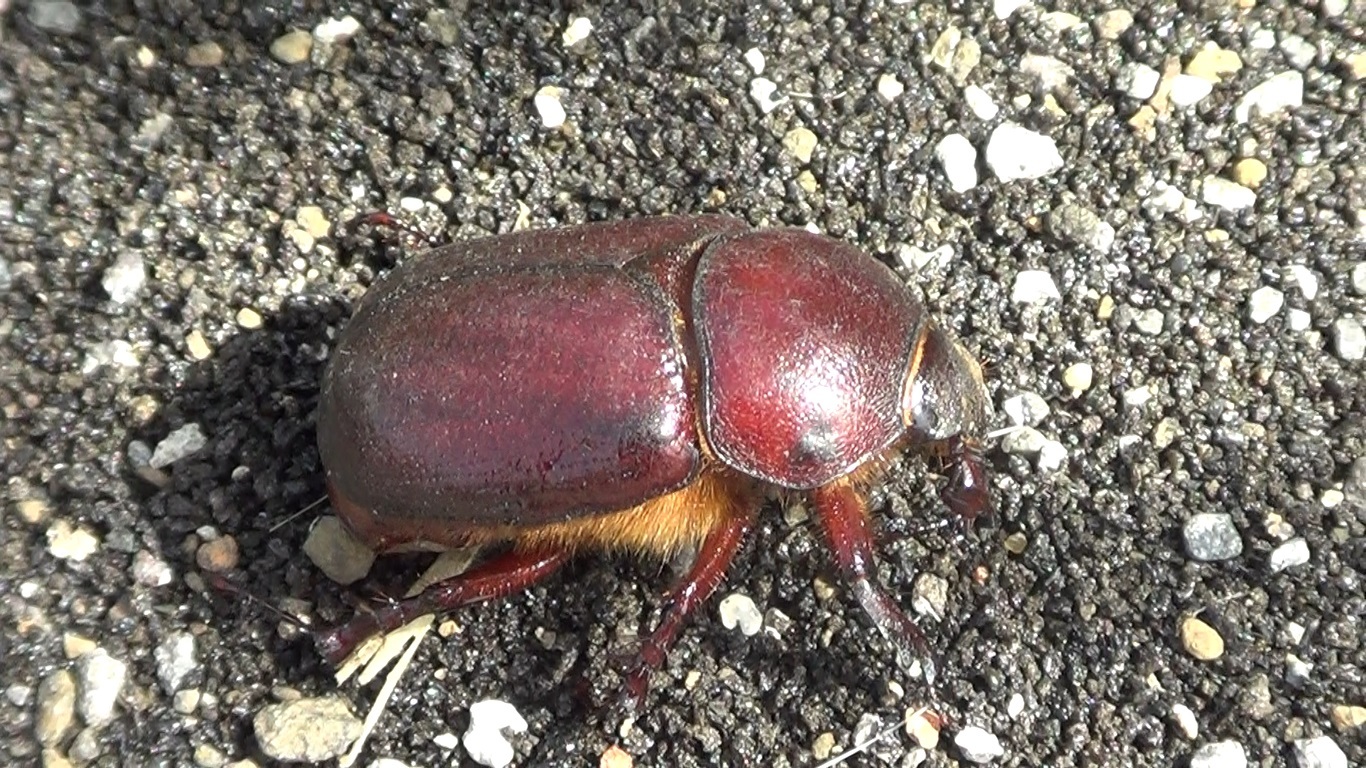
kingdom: Animalia
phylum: Arthropoda
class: Insecta
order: Coleoptera
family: Scarabaeidae
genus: Phyllognathus
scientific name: Phyllognathus excavatus
